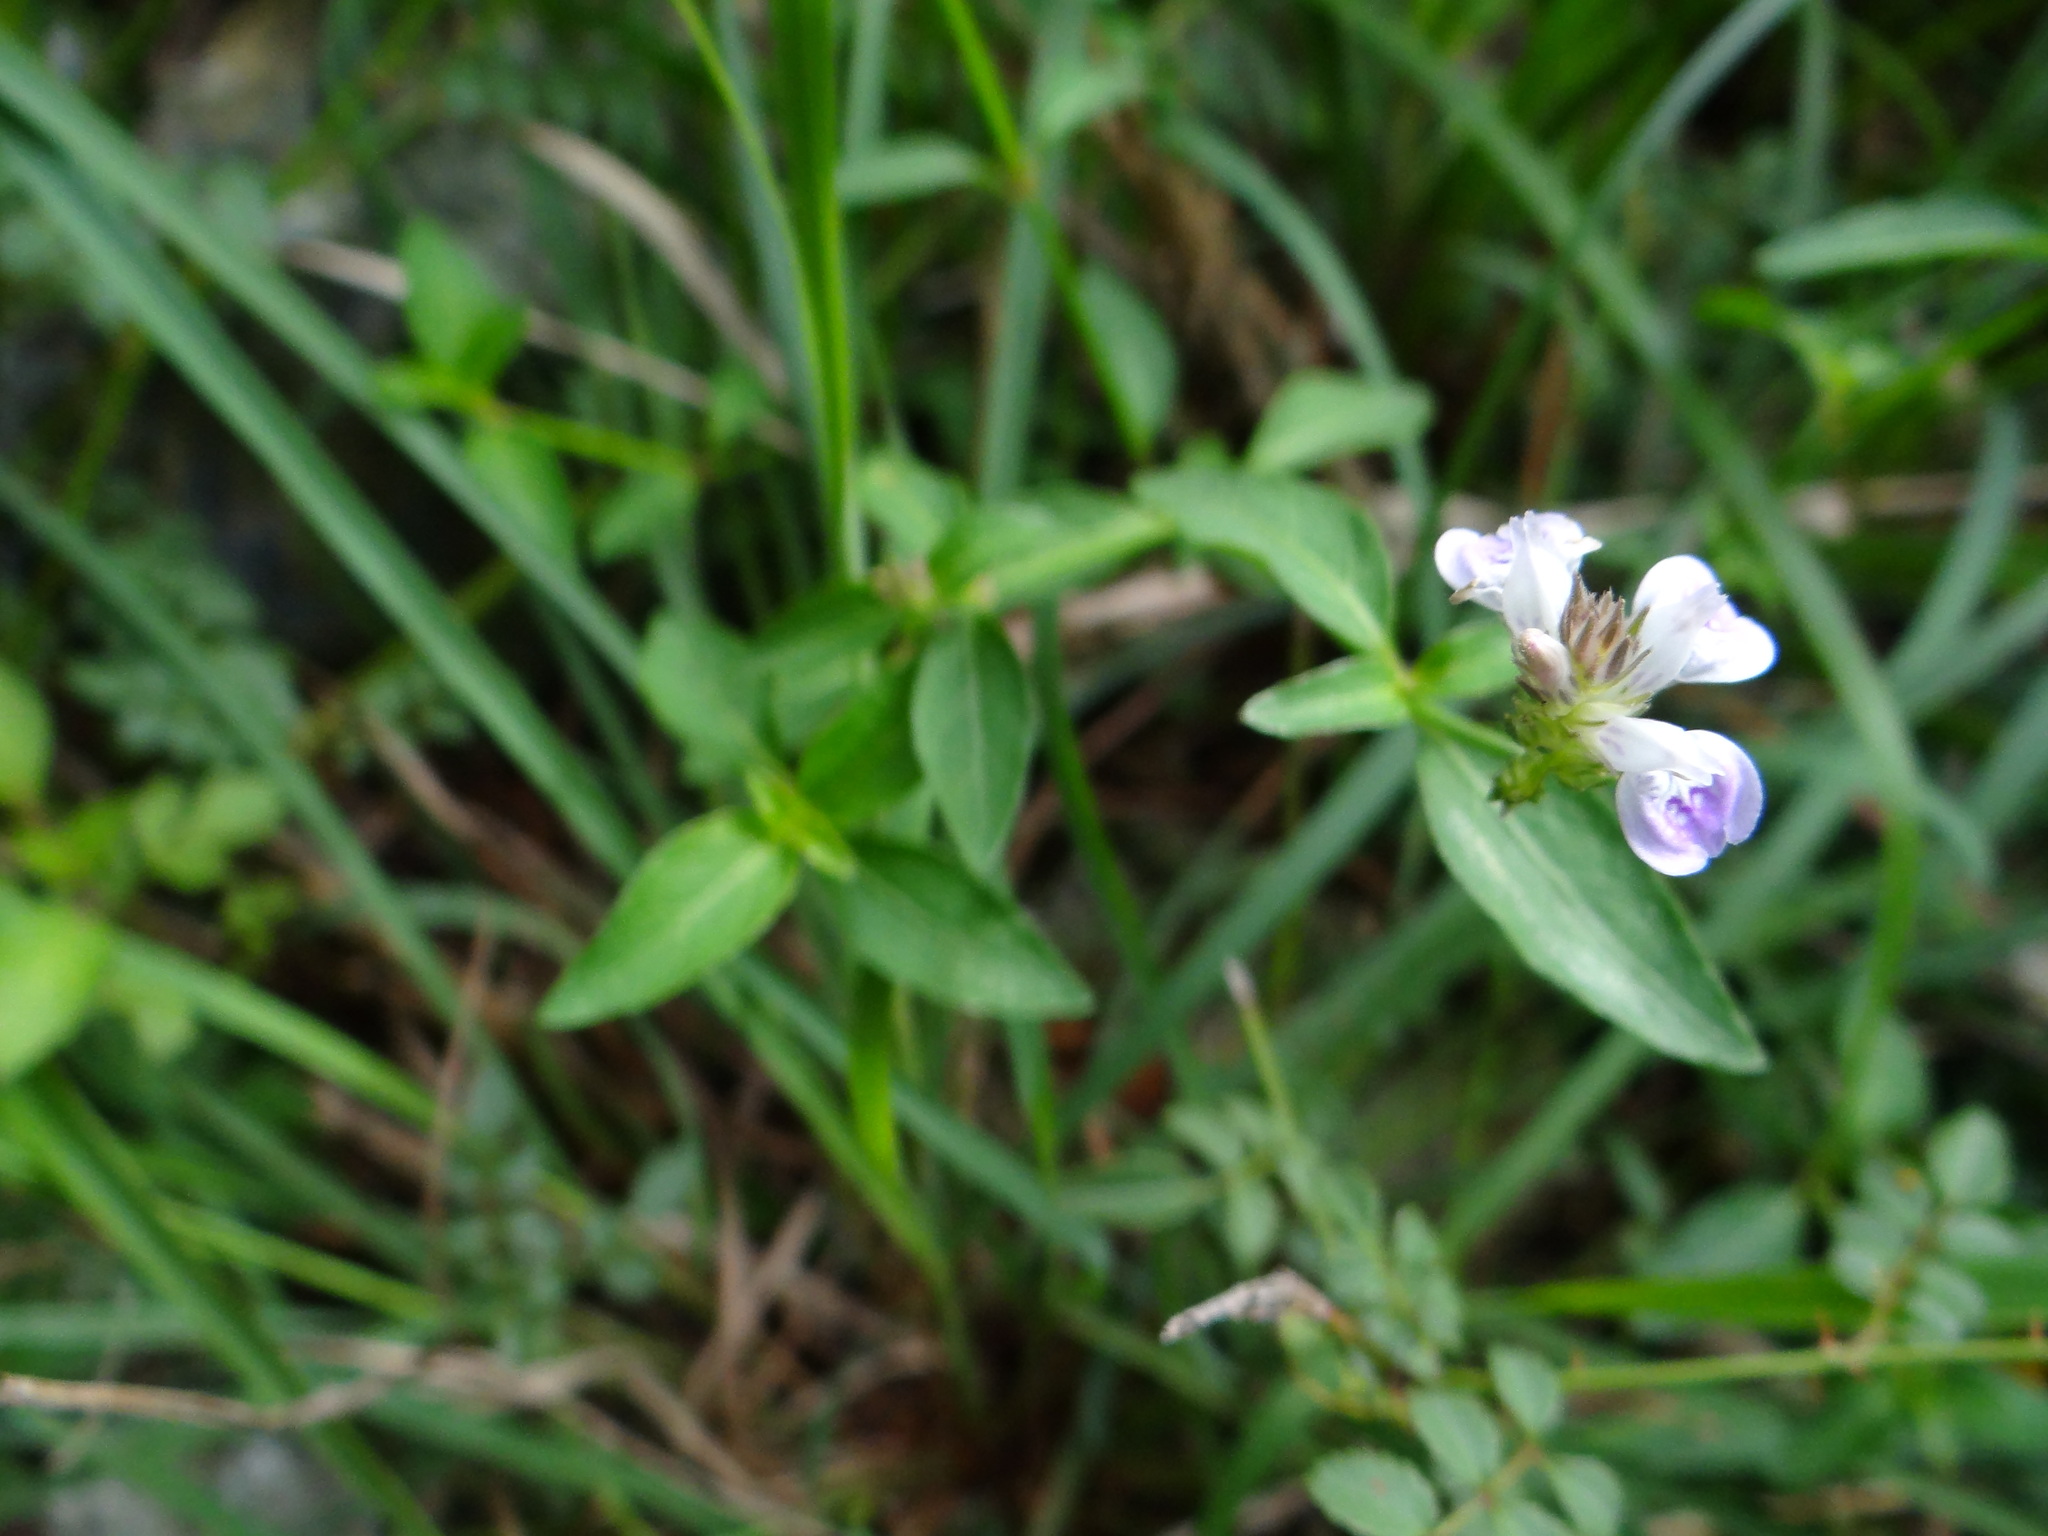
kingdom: Plantae
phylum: Tracheophyta
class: Magnoliopsida
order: Lamiales
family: Acanthaceae
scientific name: Acanthaceae
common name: Acanthaceae
